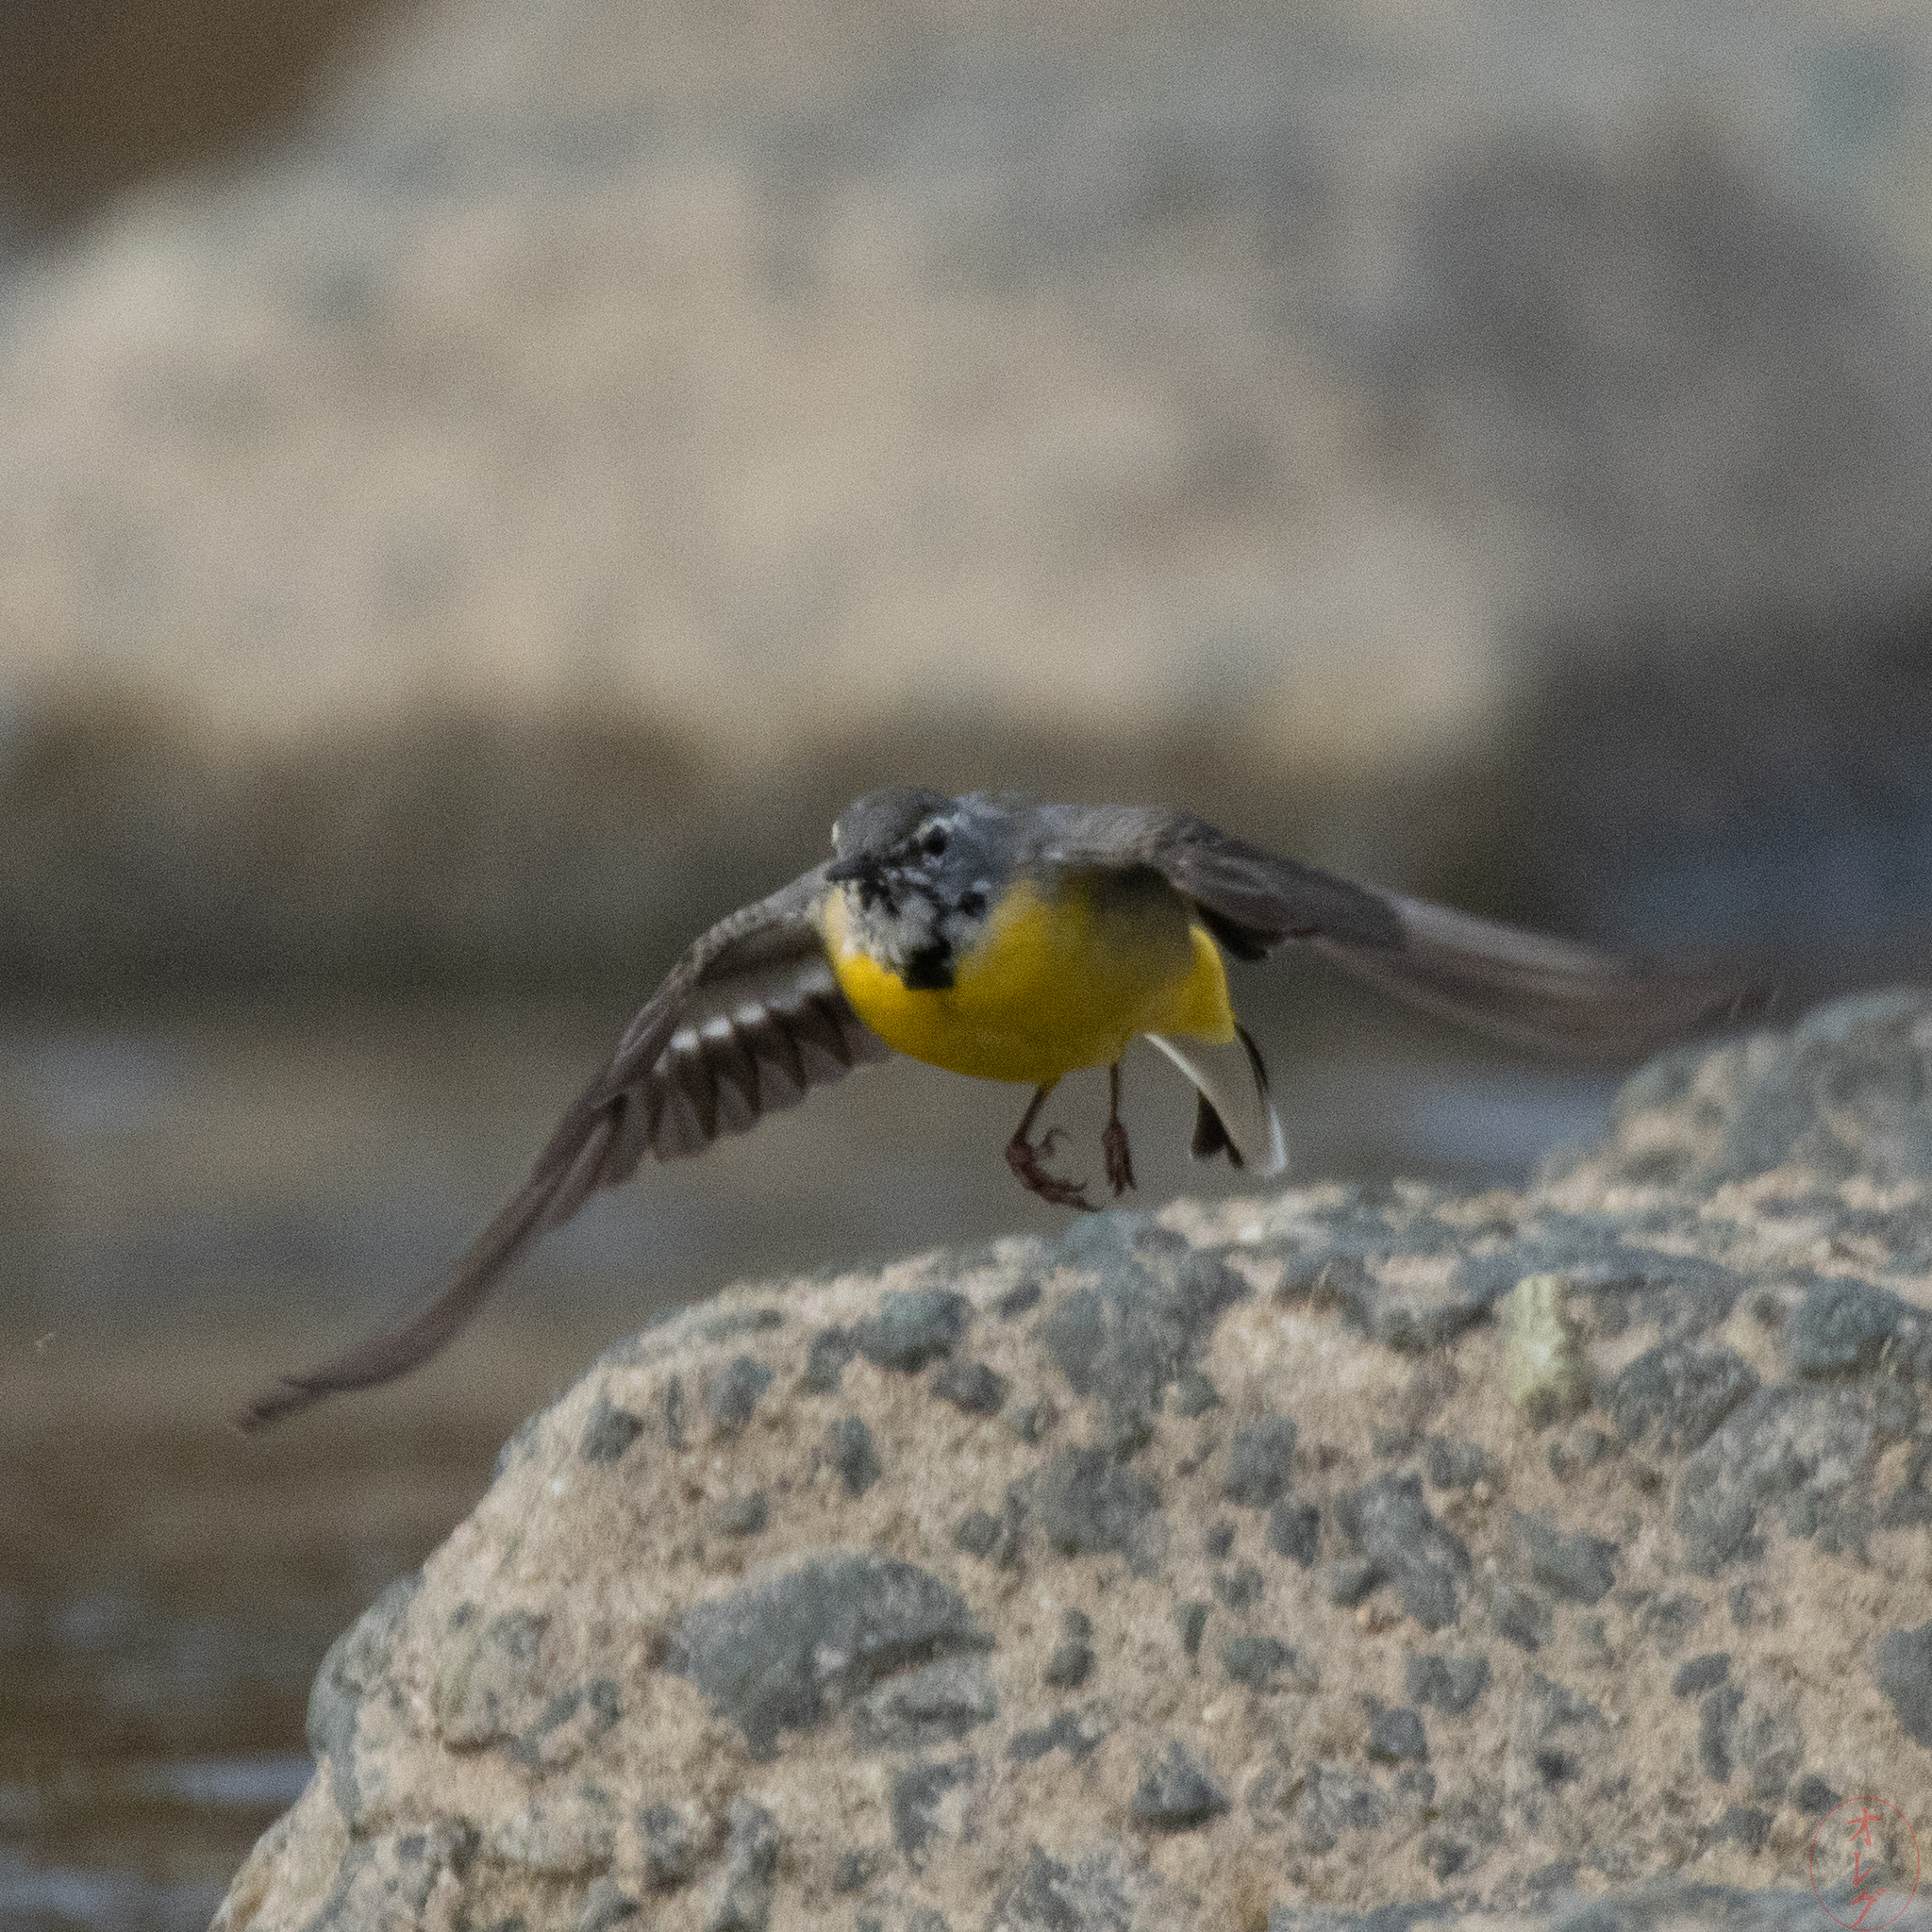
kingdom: Animalia
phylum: Chordata
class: Aves
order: Passeriformes
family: Motacillidae
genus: Motacilla
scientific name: Motacilla cinerea
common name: Grey wagtail
